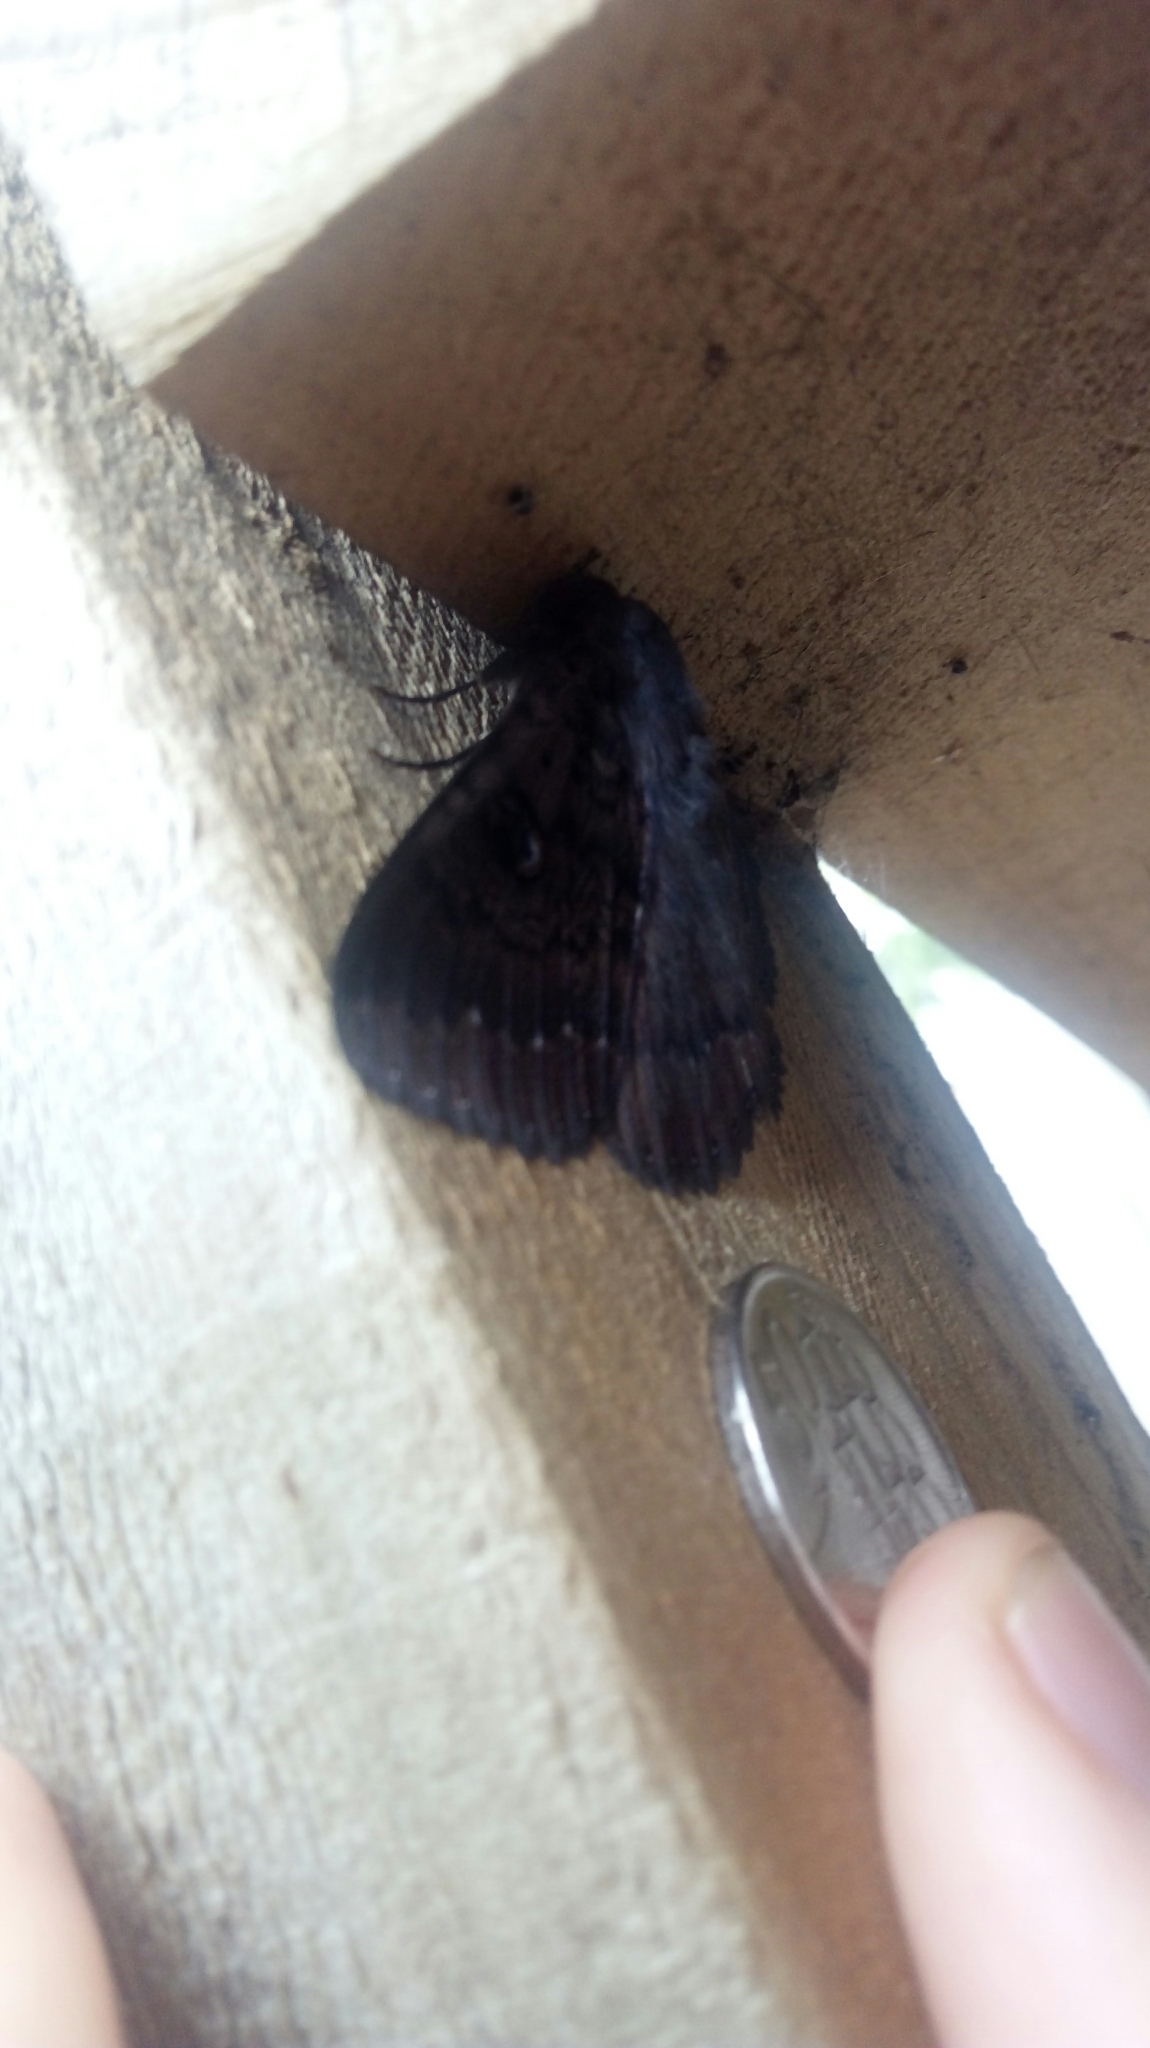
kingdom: Animalia
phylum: Arthropoda
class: Insecta
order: Lepidoptera
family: Erebidae
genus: Dasypodia
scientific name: Dasypodia cymatodes
